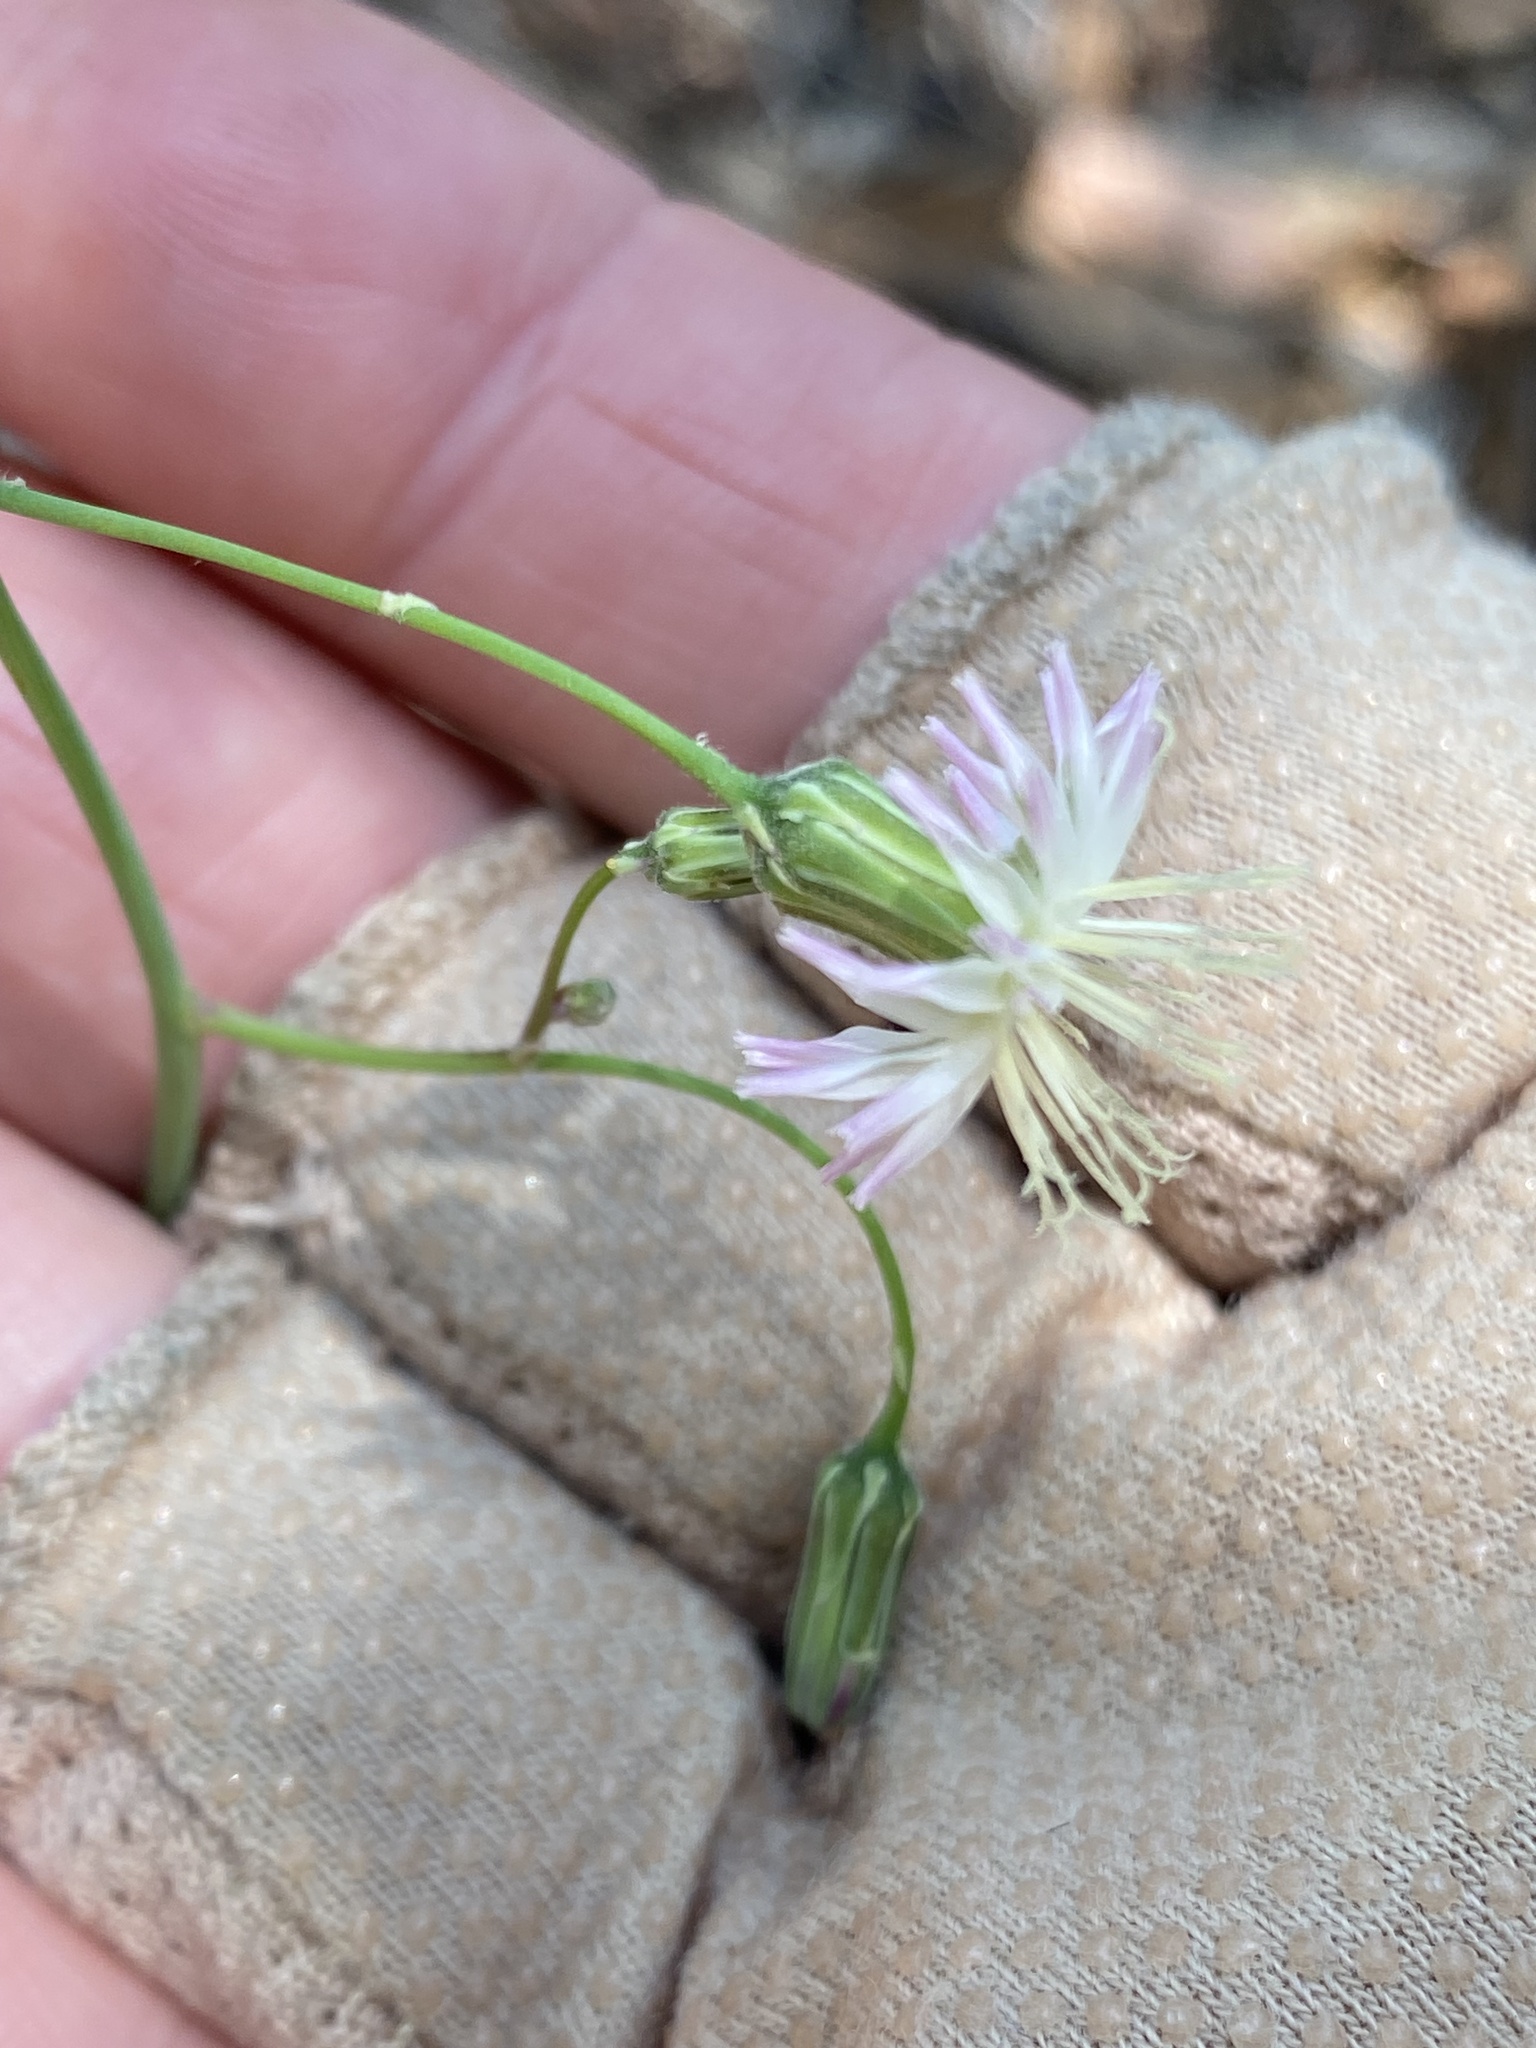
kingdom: Plantae
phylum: Tracheophyta
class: Magnoliopsida
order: Asterales
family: Asteraceae
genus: Hieracium
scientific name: Hieracium carneum
